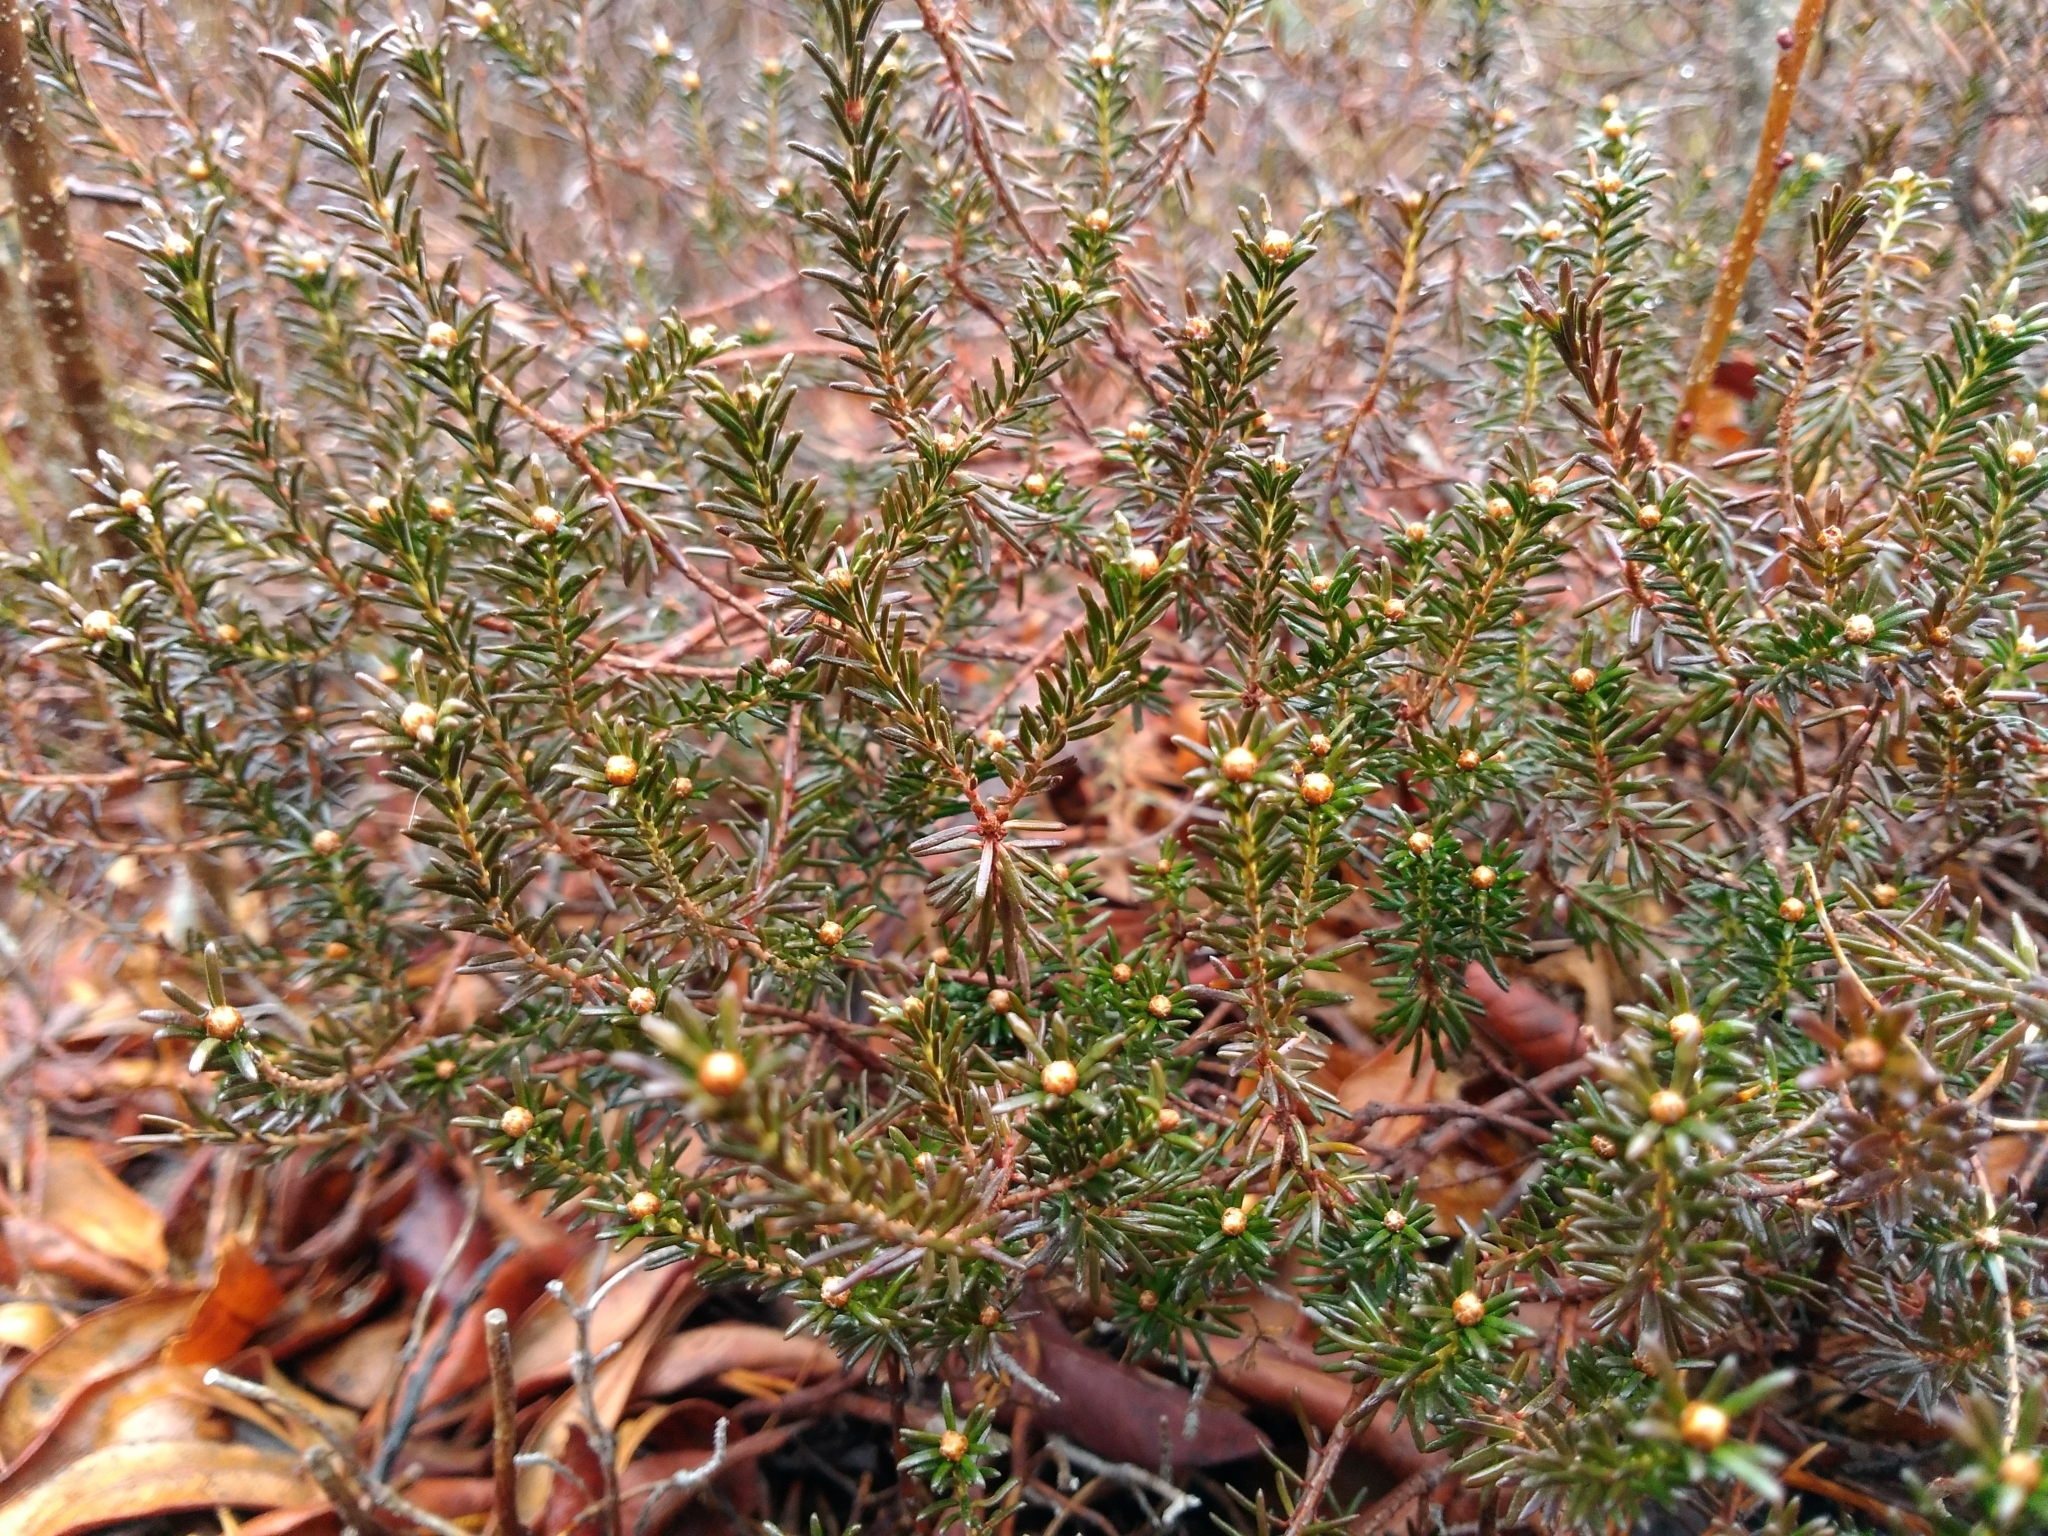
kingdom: Plantae
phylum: Tracheophyta
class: Magnoliopsida
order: Ericales
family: Ericaceae
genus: Corema
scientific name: Corema conradii
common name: Broom-crowberry
